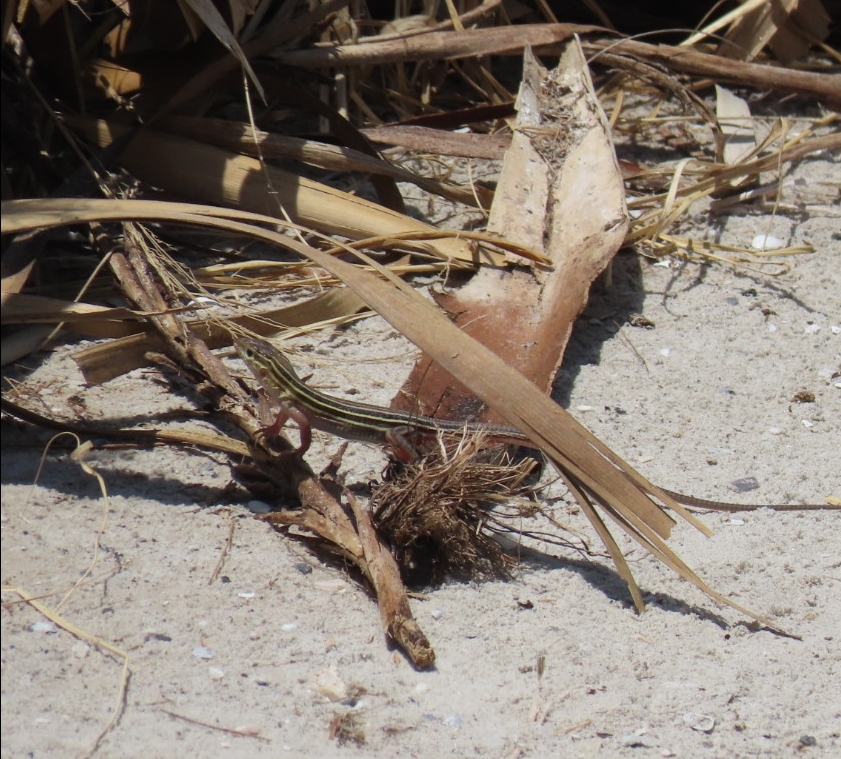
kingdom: Animalia
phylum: Chordata
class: Squamata
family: Teiidae
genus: Aspidoscelis
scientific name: Aspidoscelis sexlineatus
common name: Six-lined racerunner
